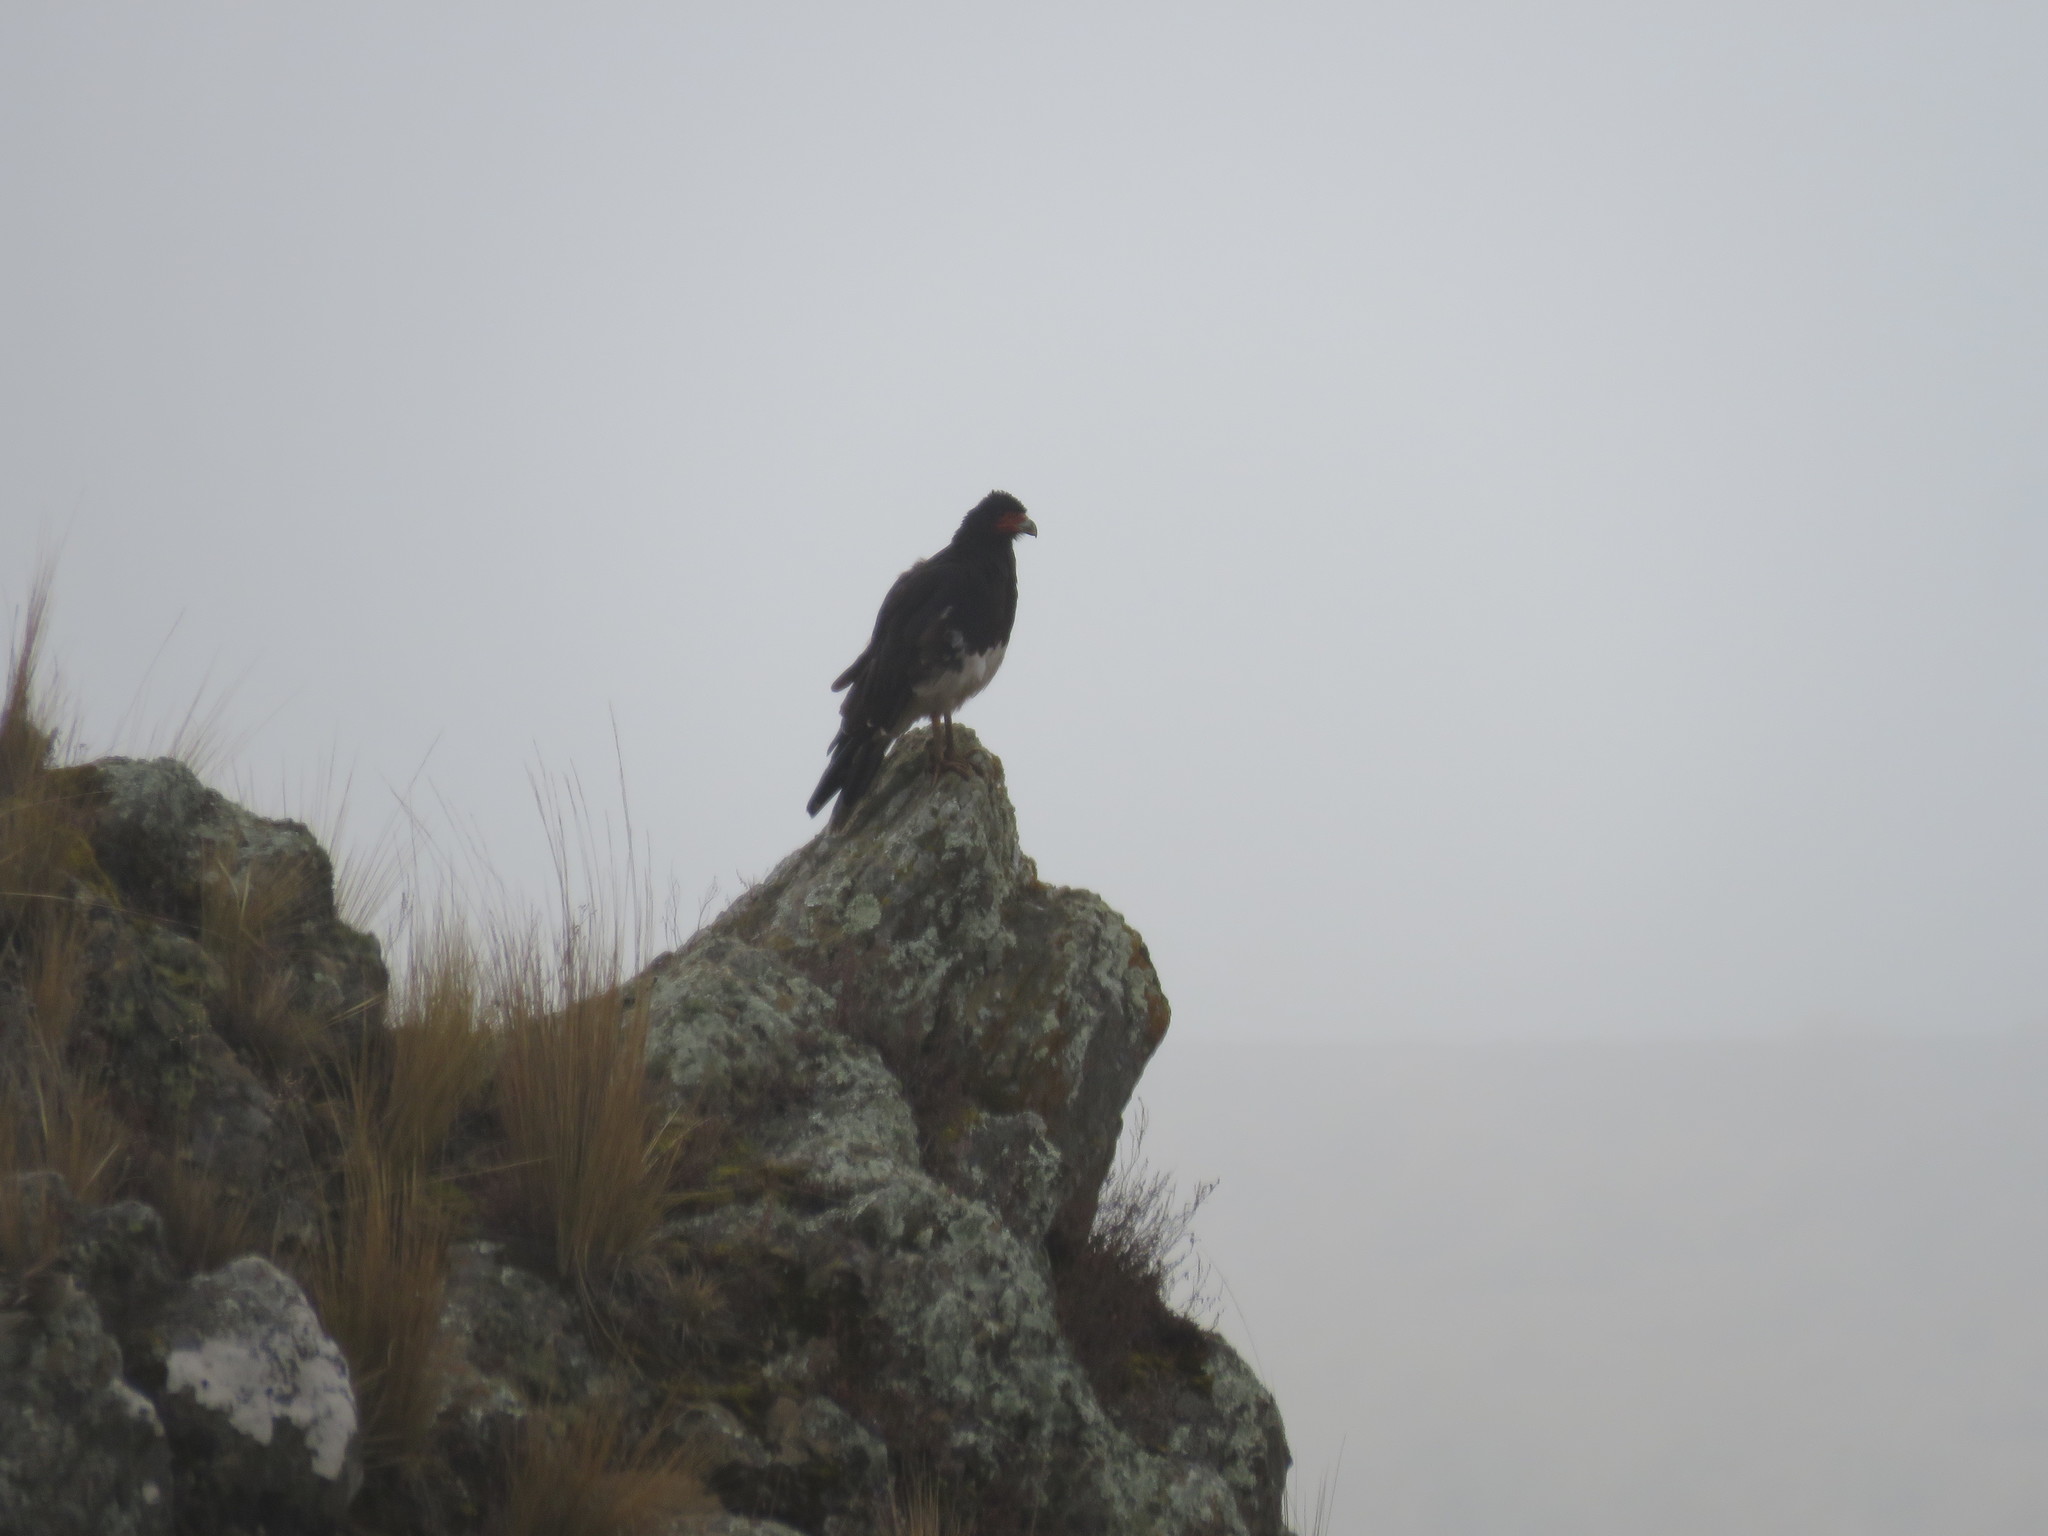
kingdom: Animalia
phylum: Chordata
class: Aves
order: Falconiformes
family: Falconidae
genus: Daptrius
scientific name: Daptrius
